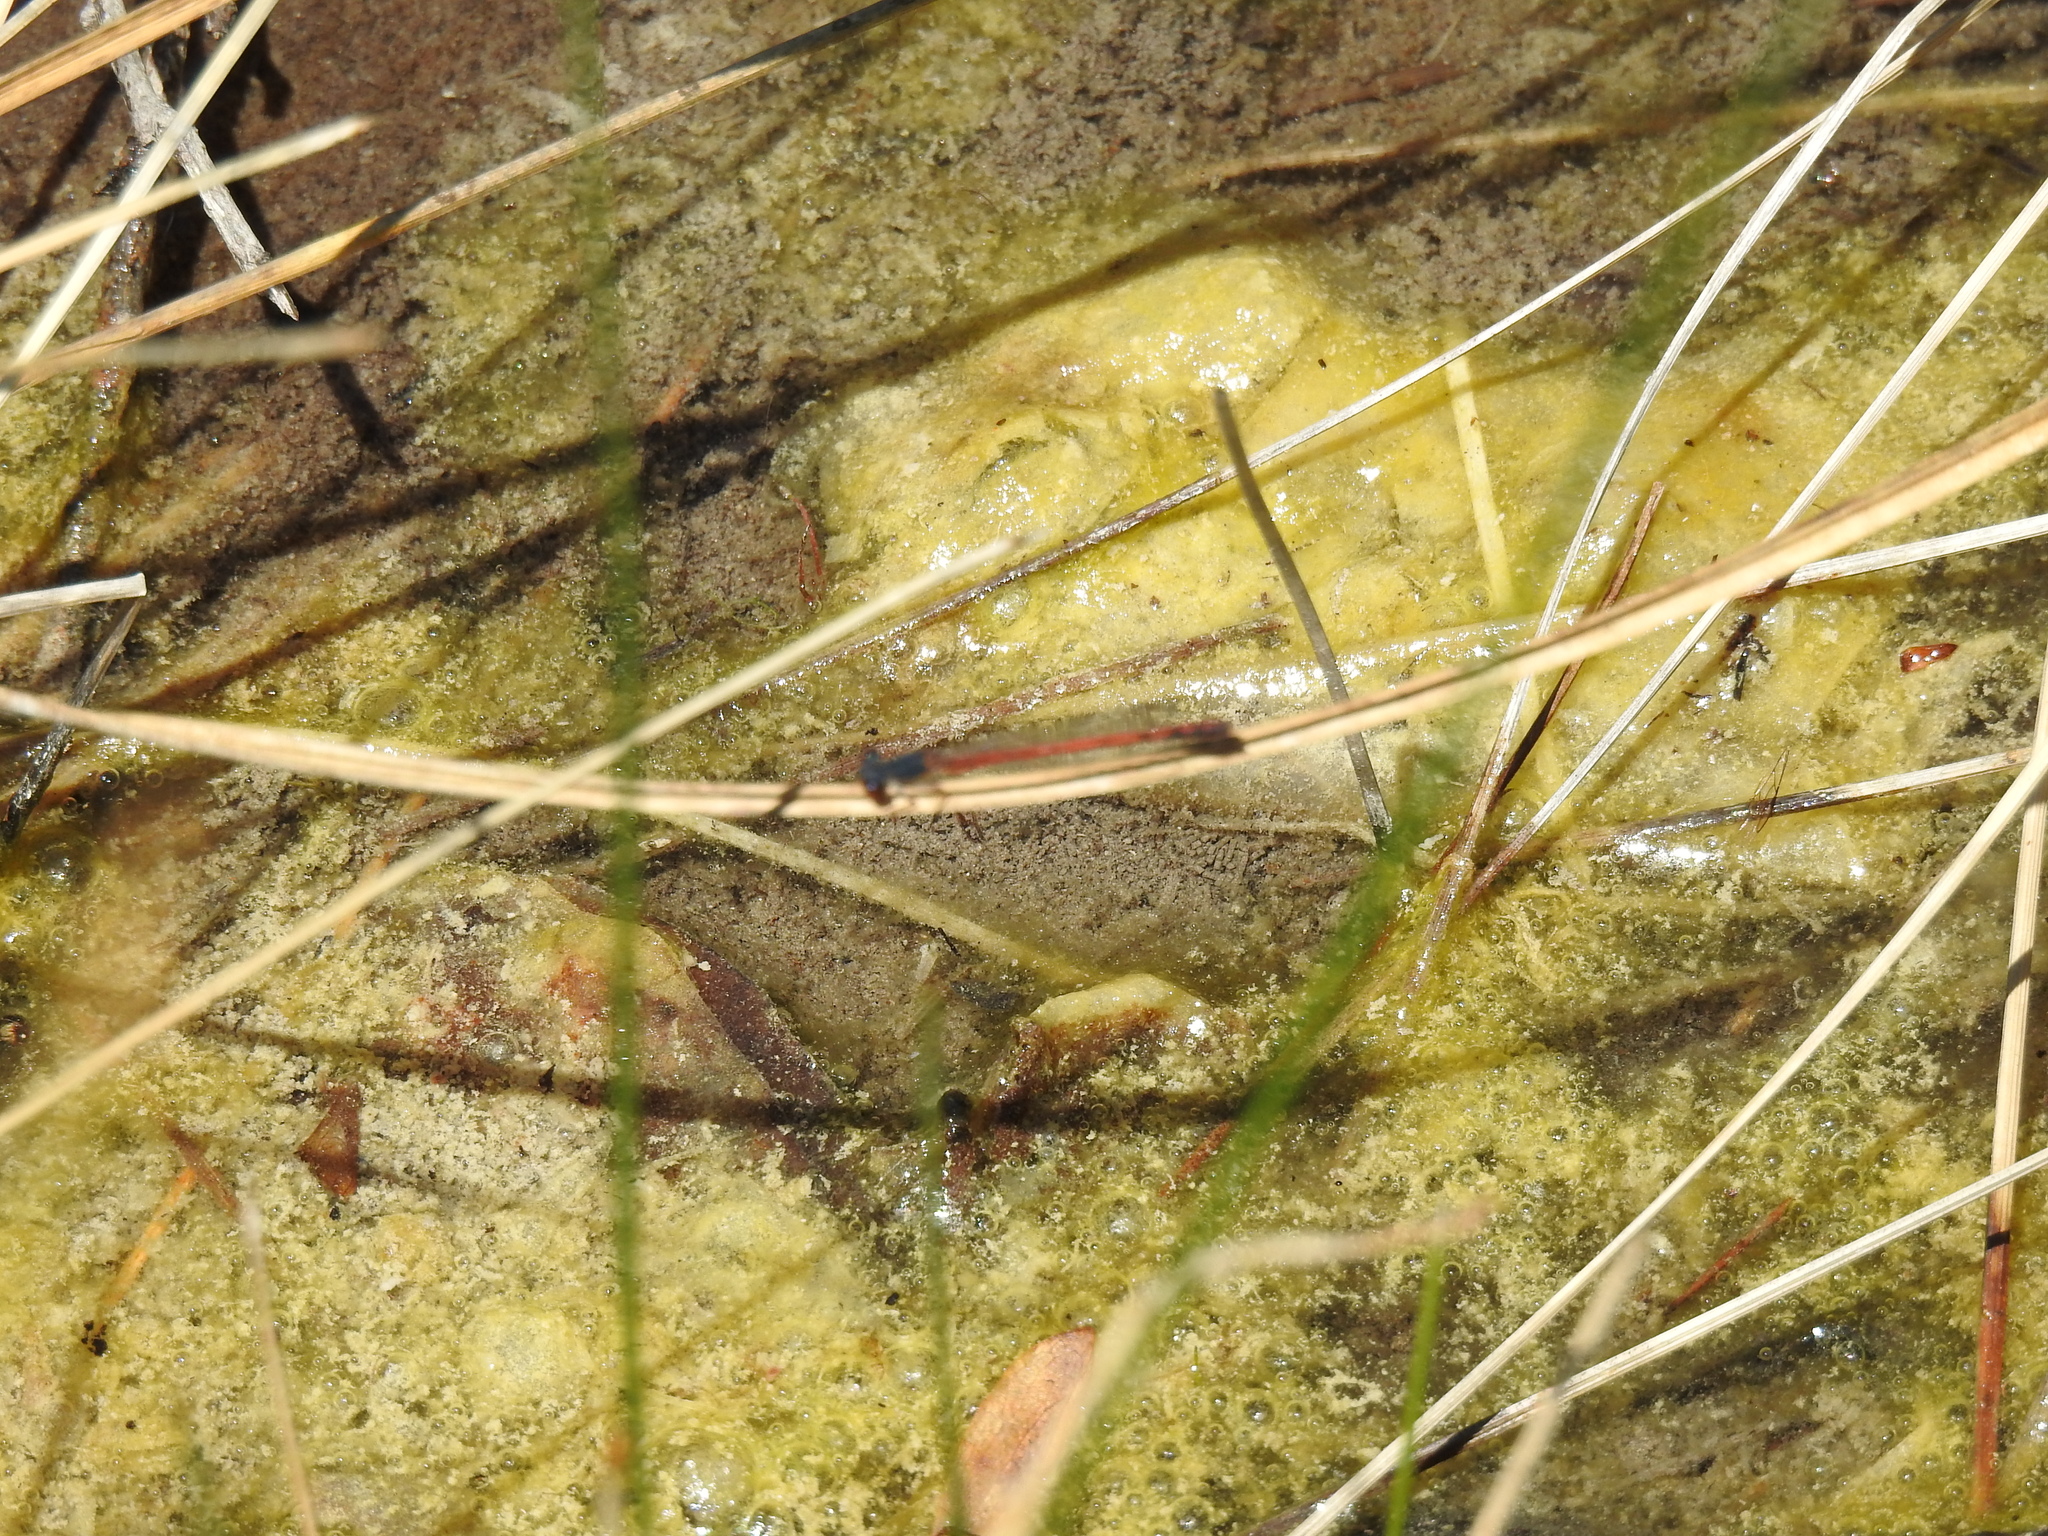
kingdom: Animalia
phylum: Arthropoda
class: Insecta
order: Odonata
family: Coenagrionidae
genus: Amphiagrion
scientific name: Amphiagrion saucium
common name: Eastern red damsel
